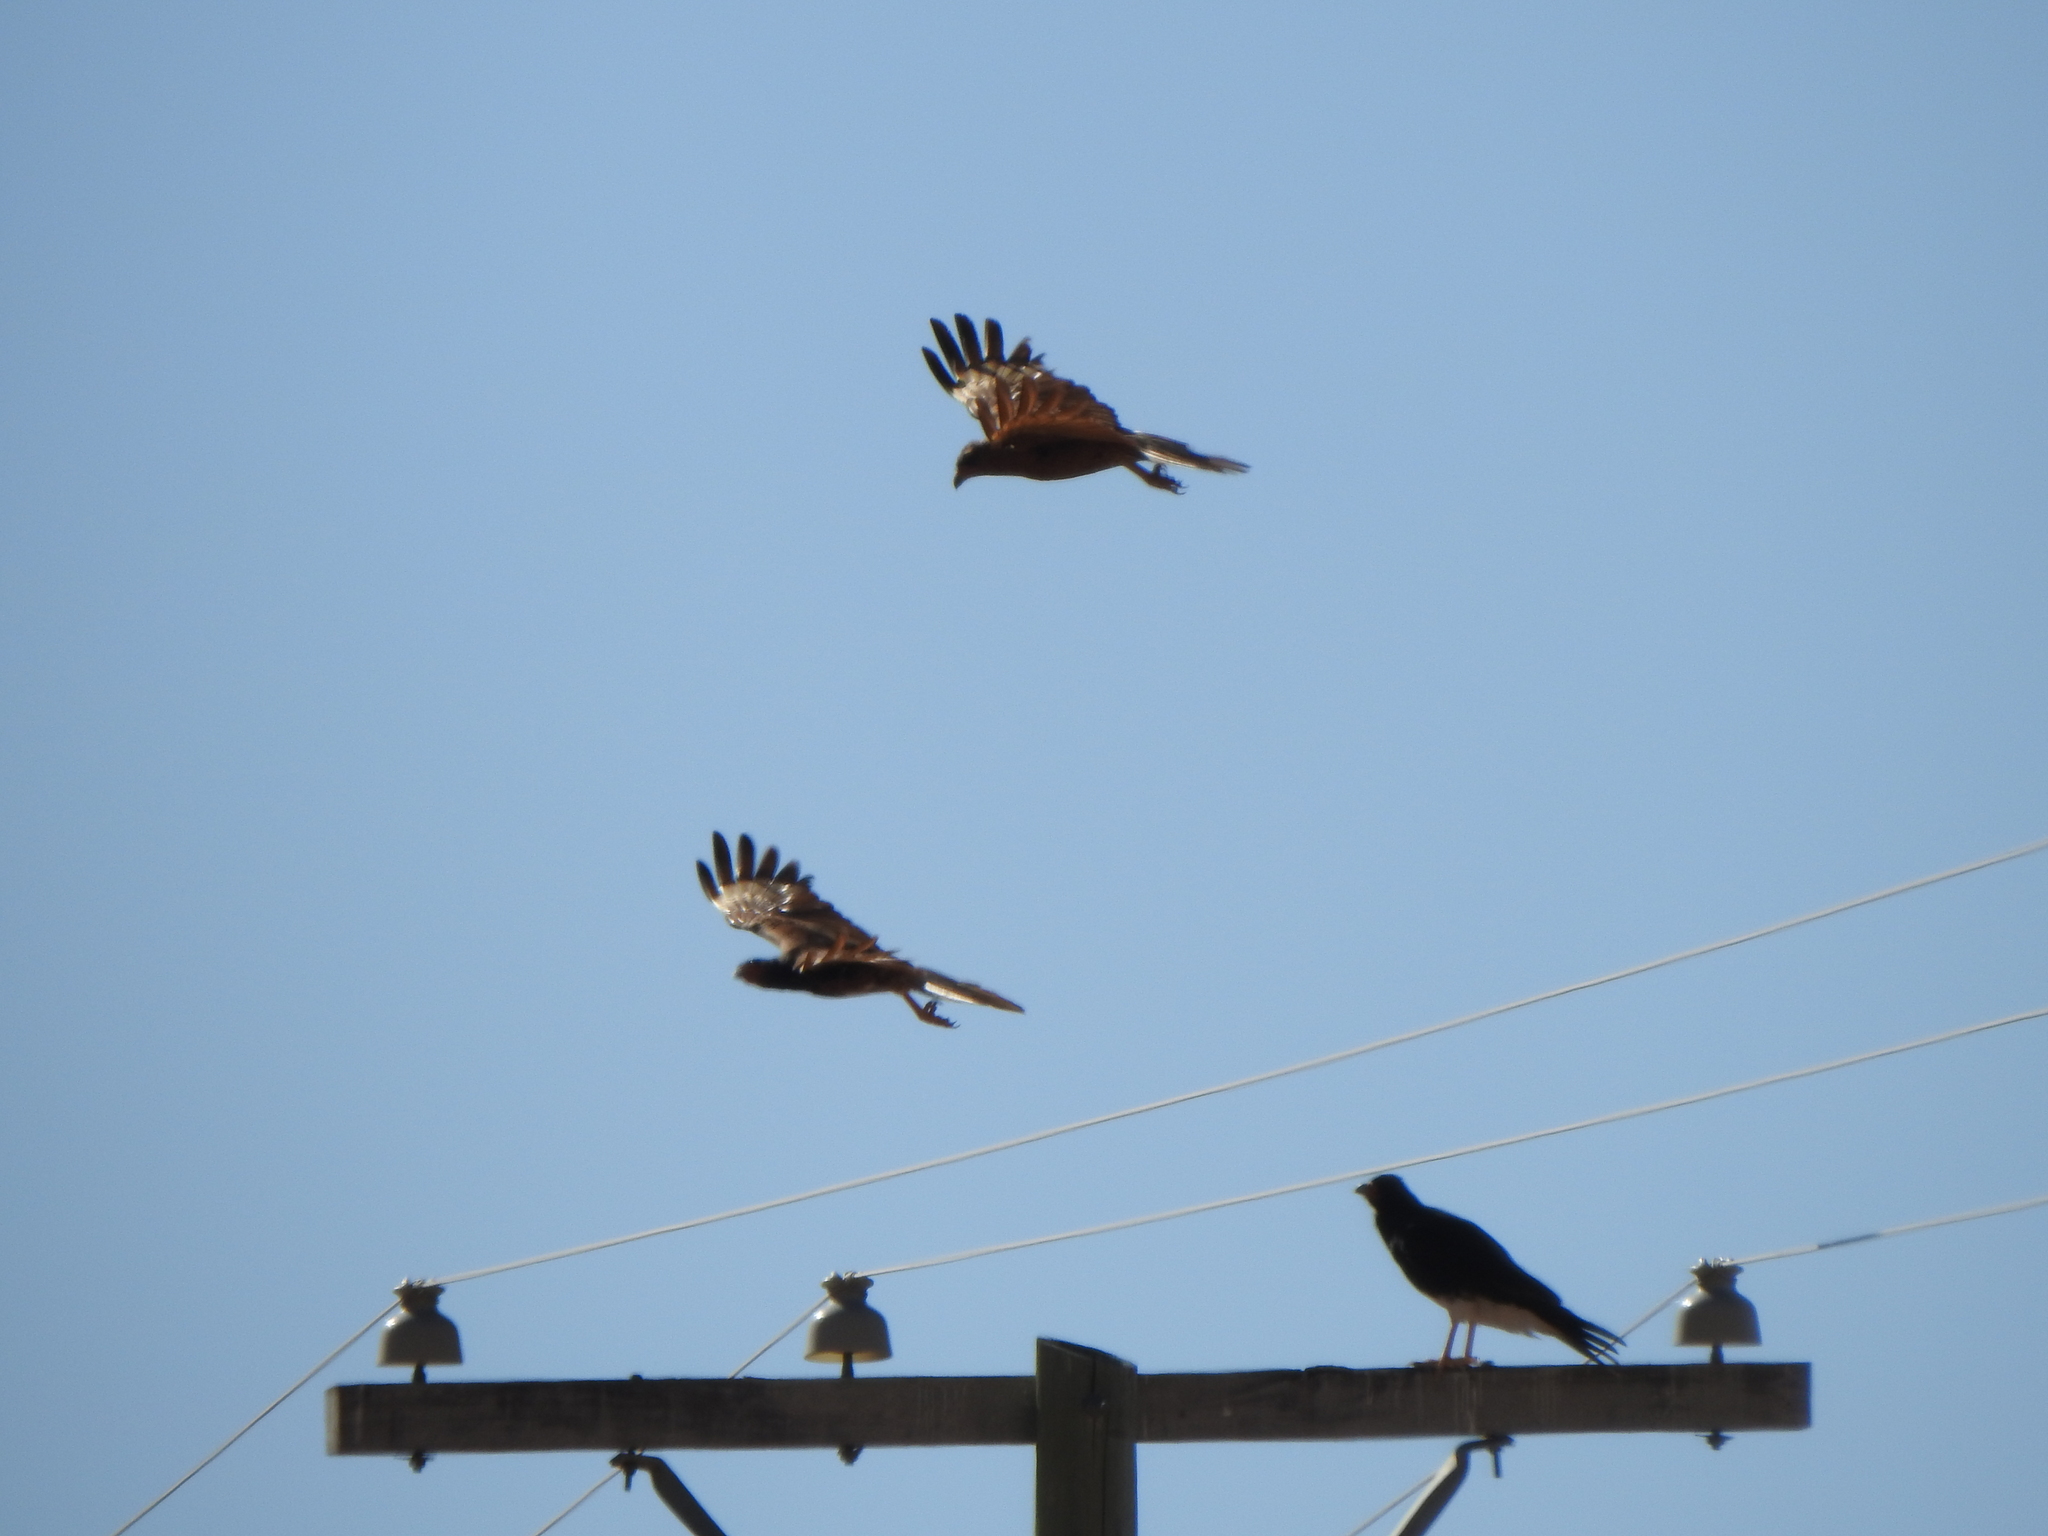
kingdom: Animalia
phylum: Chordata
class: Aves
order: Falconiformes
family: Falconidae
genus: Daptrius
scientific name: Daptrius
